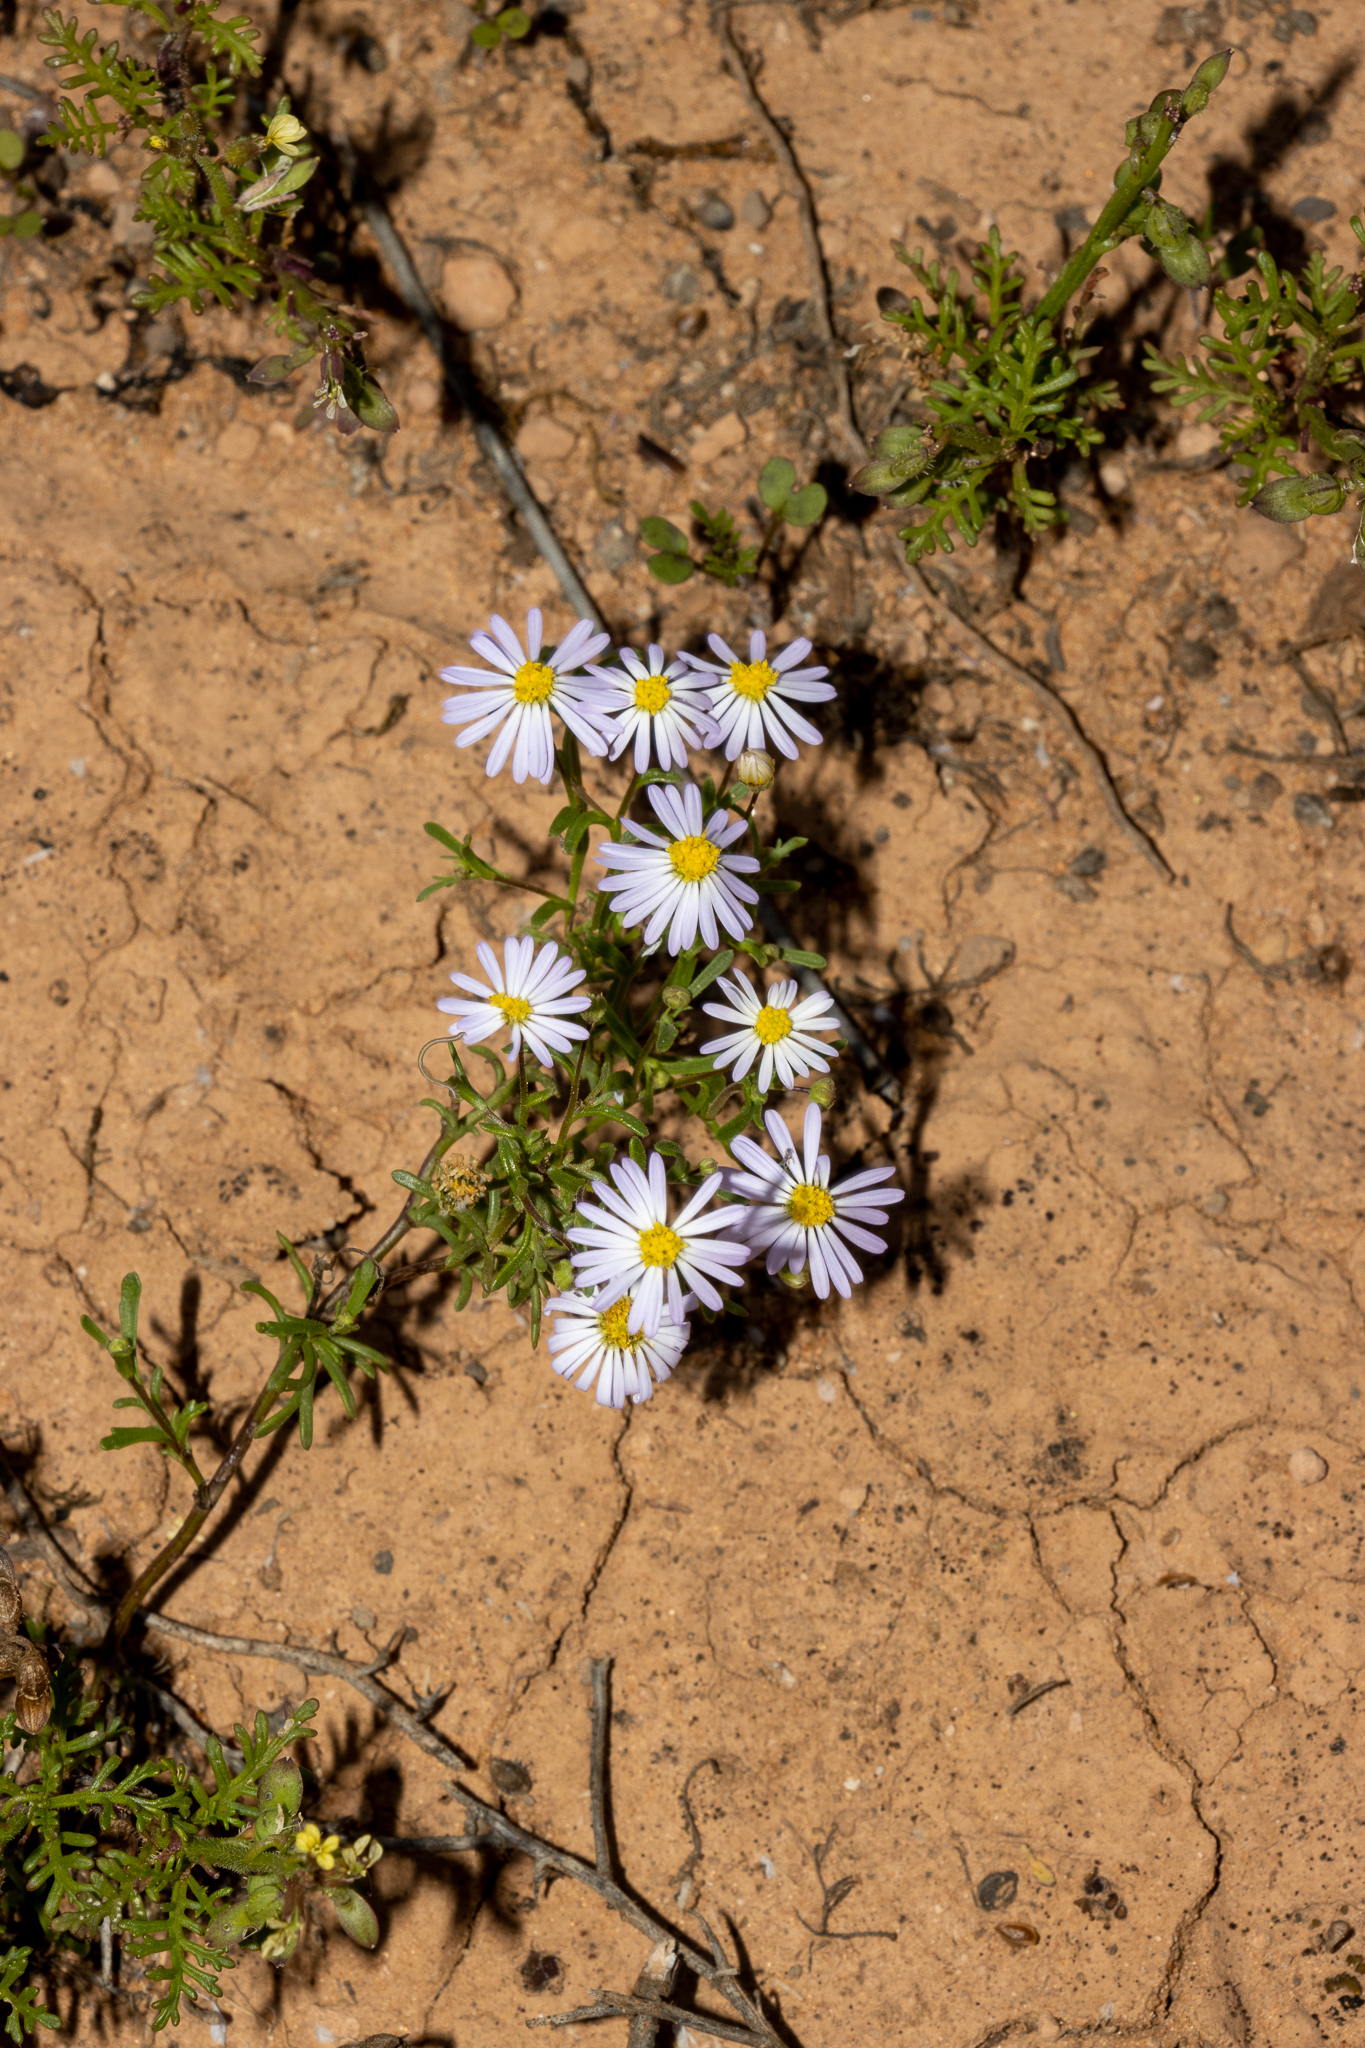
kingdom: Plantae
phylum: Tracheophyta
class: Magnoliopsida
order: Asterales
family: Asteraceae
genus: Brachyscome
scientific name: Brachyscome ciliaris
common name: Variable daisy
